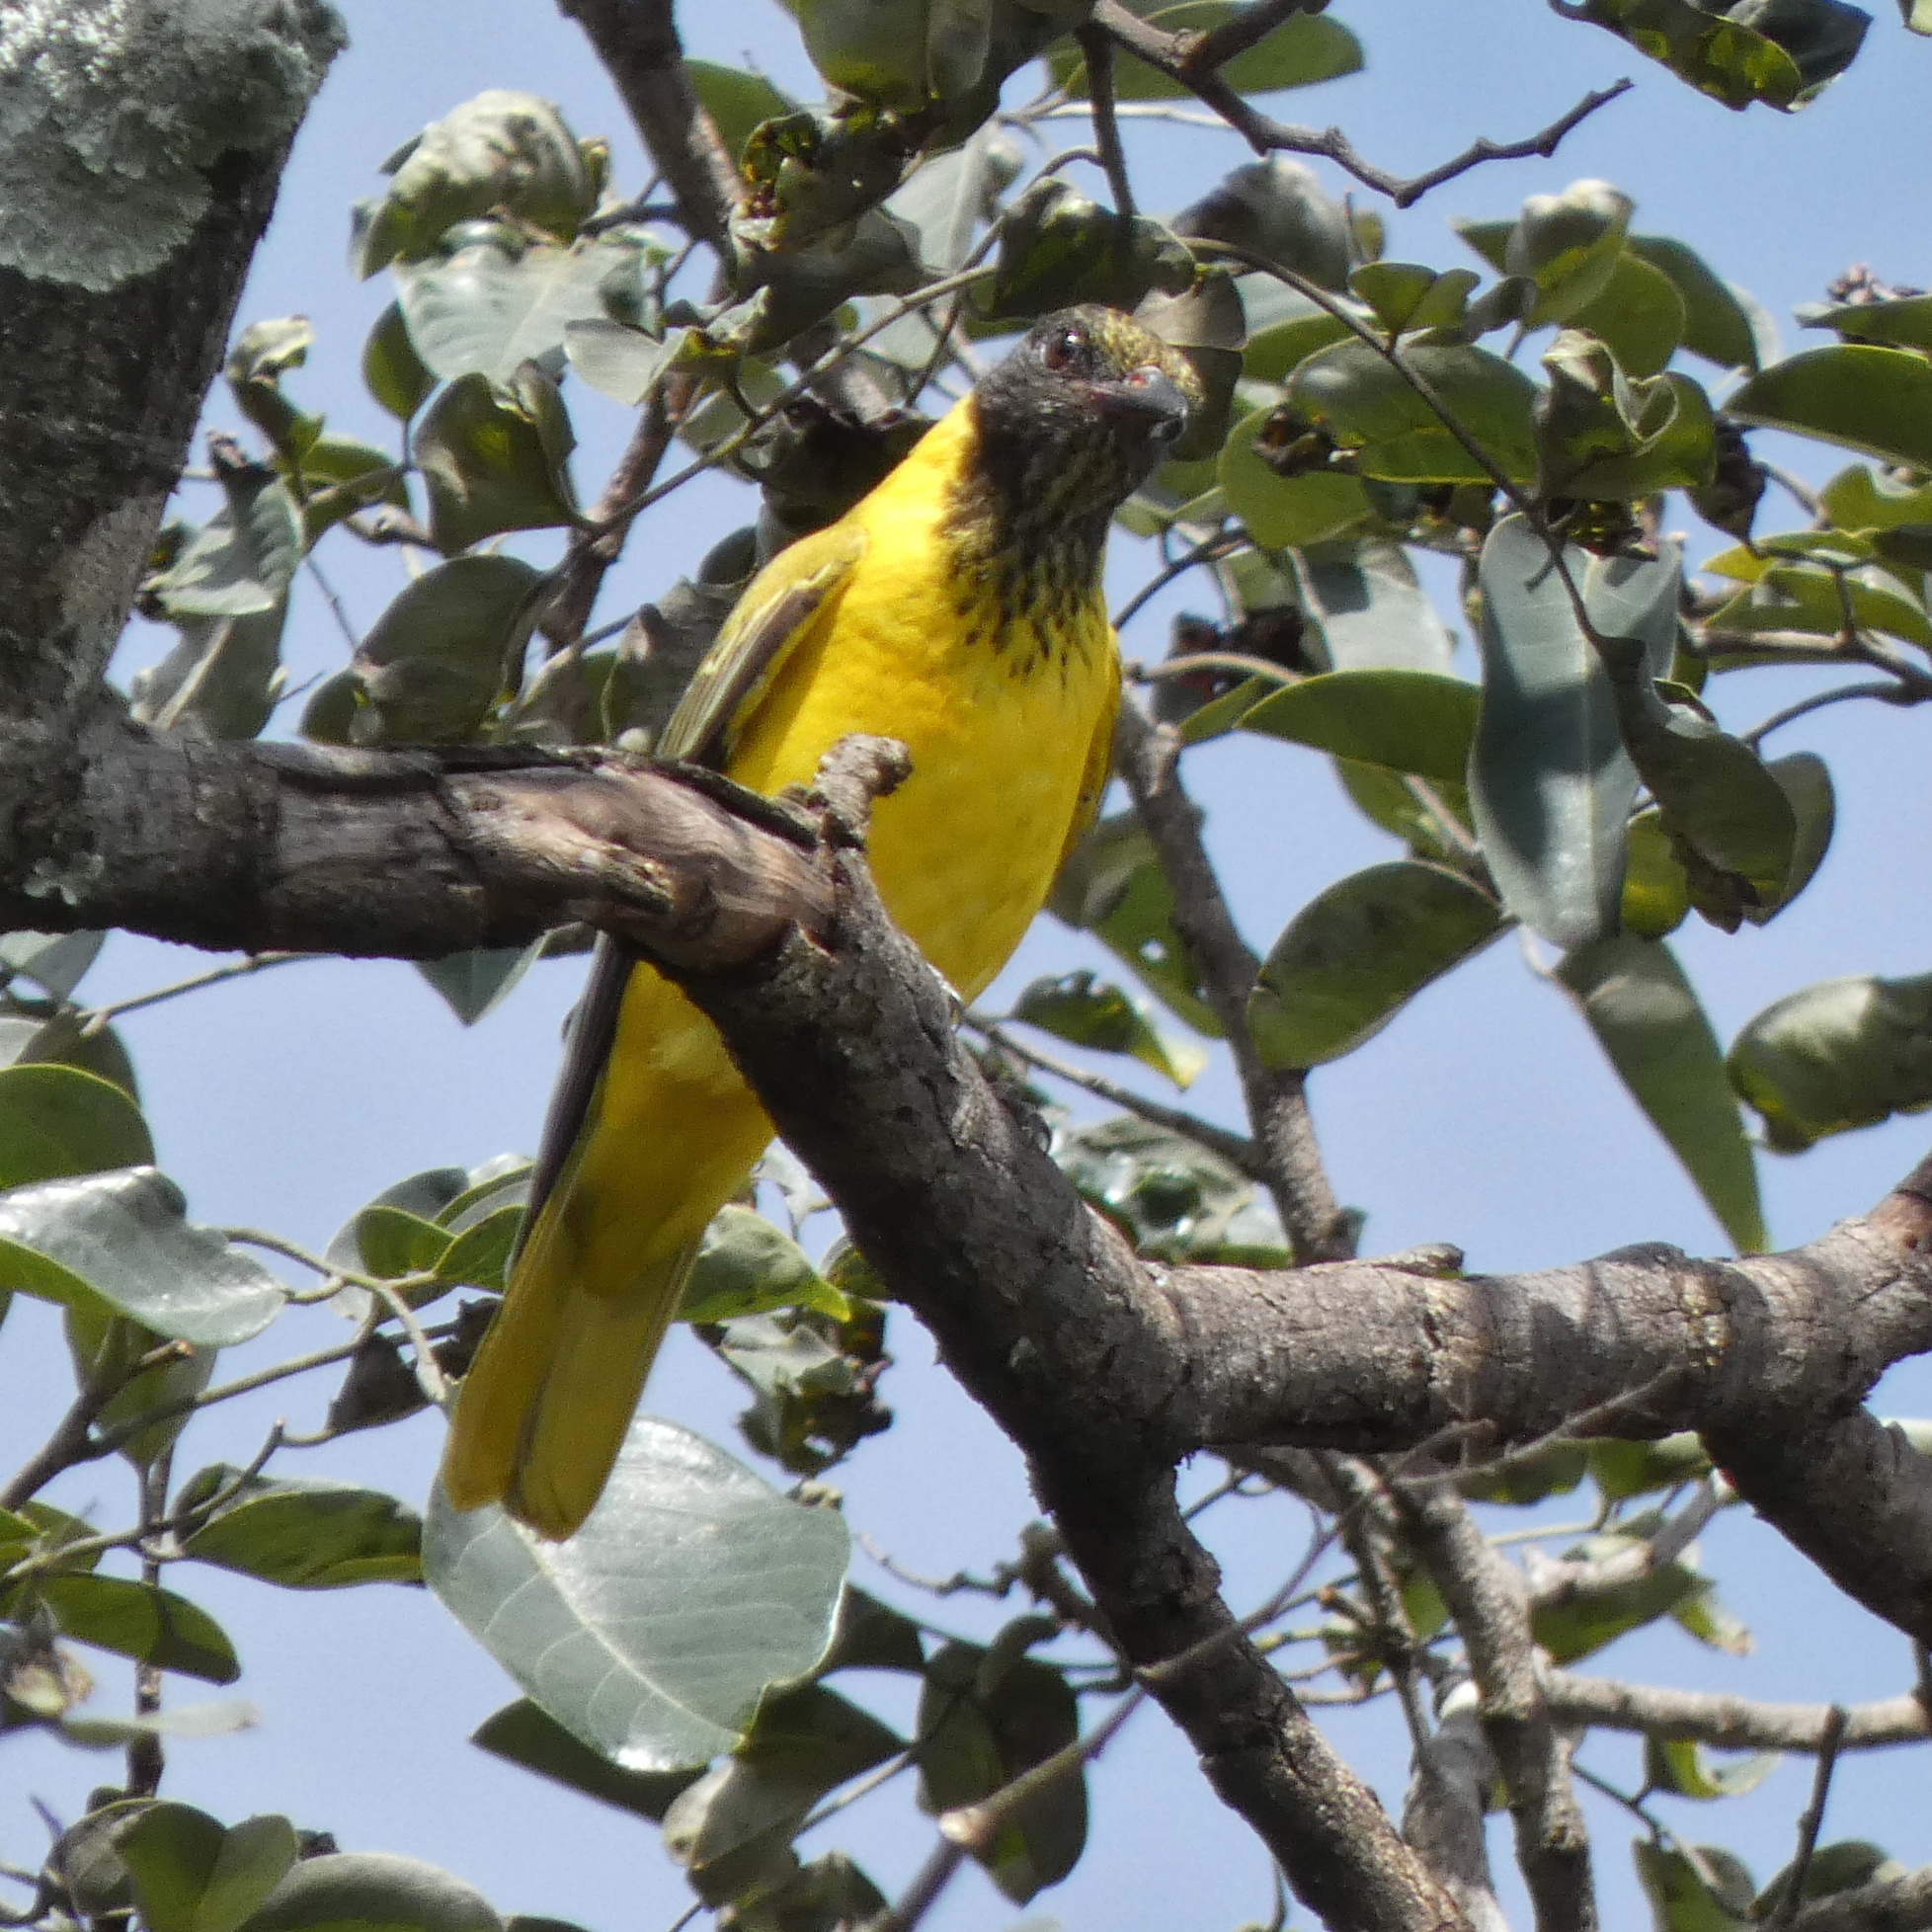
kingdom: Animalia
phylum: Chordata
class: Aves
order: Passeriformes
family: Oriolidae
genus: Oriolus
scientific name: Oriolus larvatus
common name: Black-headed oriole
